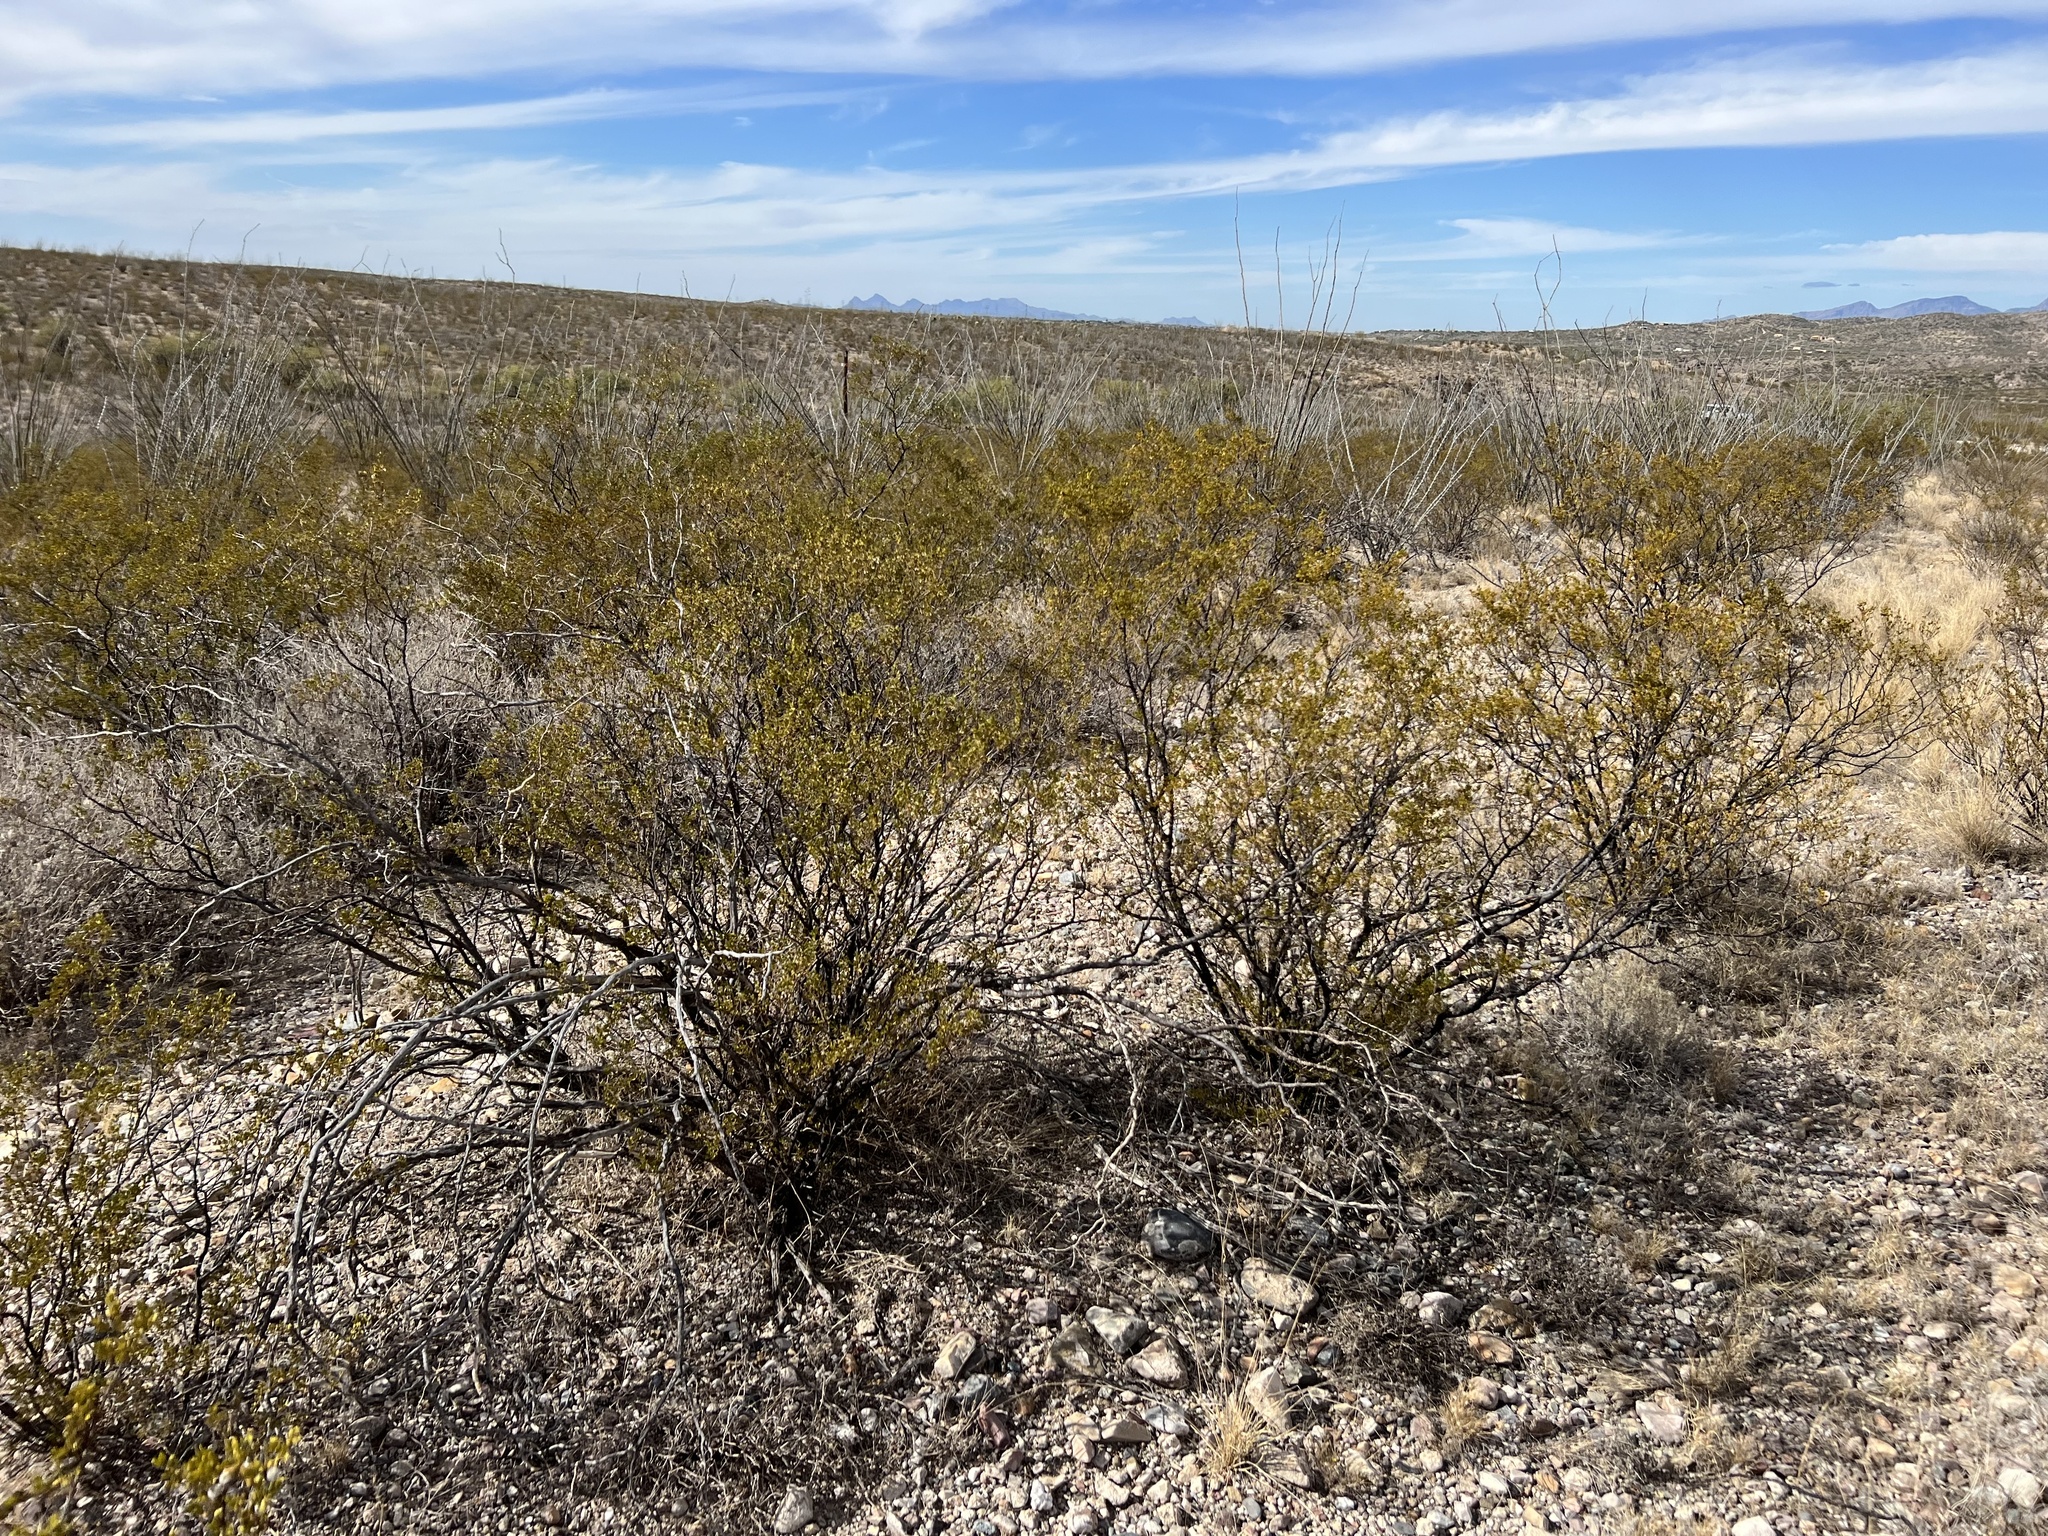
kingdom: Plantae
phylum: Tracheophyta
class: Magnoliopsida
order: Zygophyllales
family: Zygophyllaceae
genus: Larrea
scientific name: Larrea tridentata
